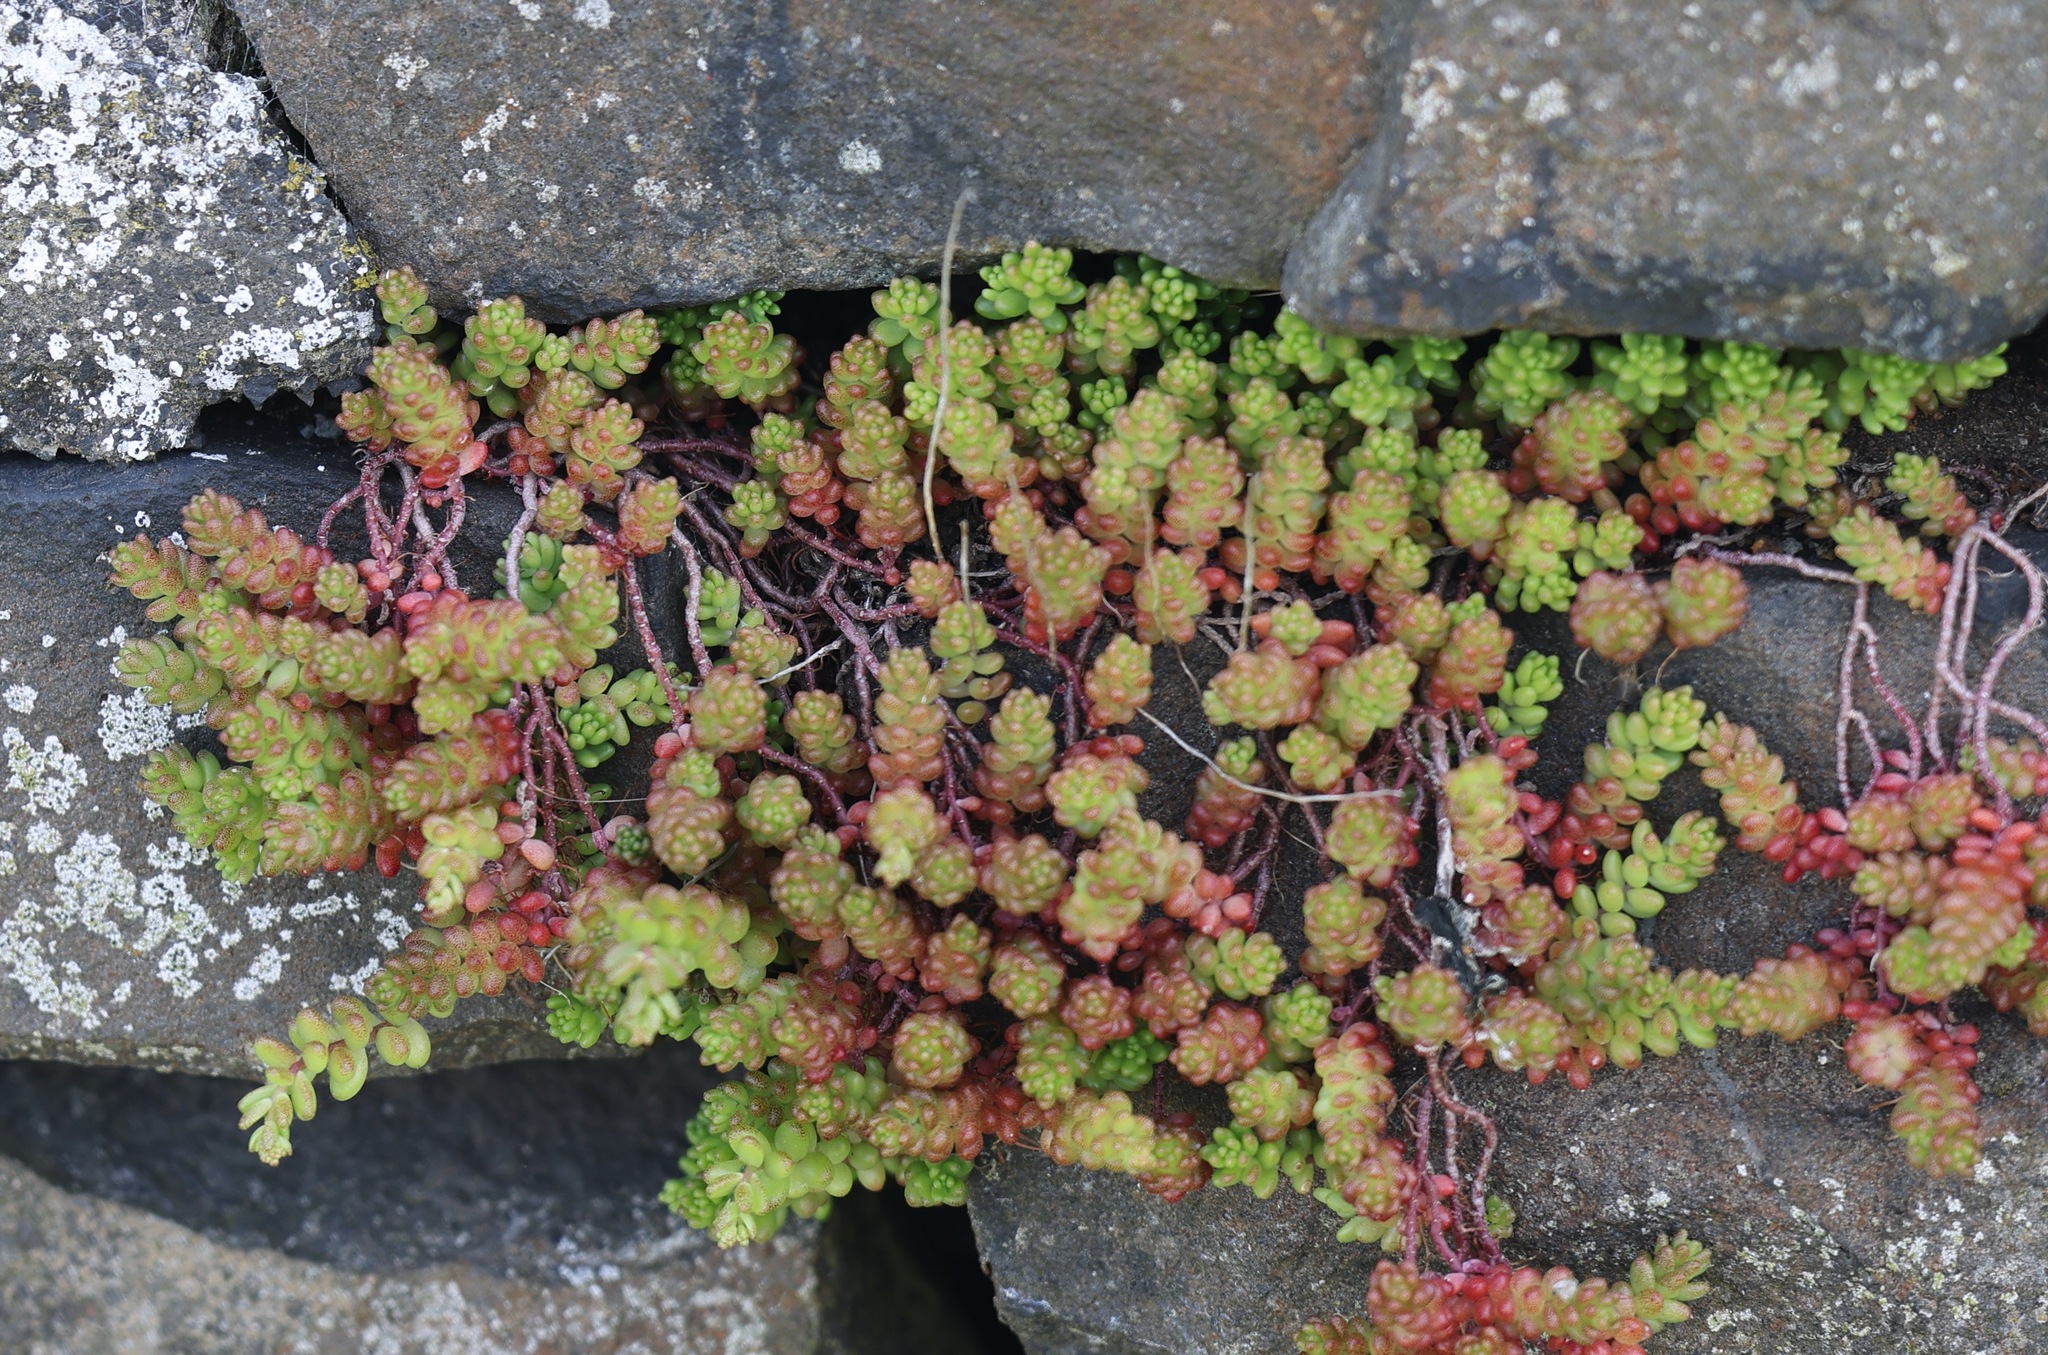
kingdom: Plantae
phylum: Tracheophyta
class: Magnoliopsida
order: Saxifragales
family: Crassulaceae
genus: Sedum
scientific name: Sedum album
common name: White stonecrop
